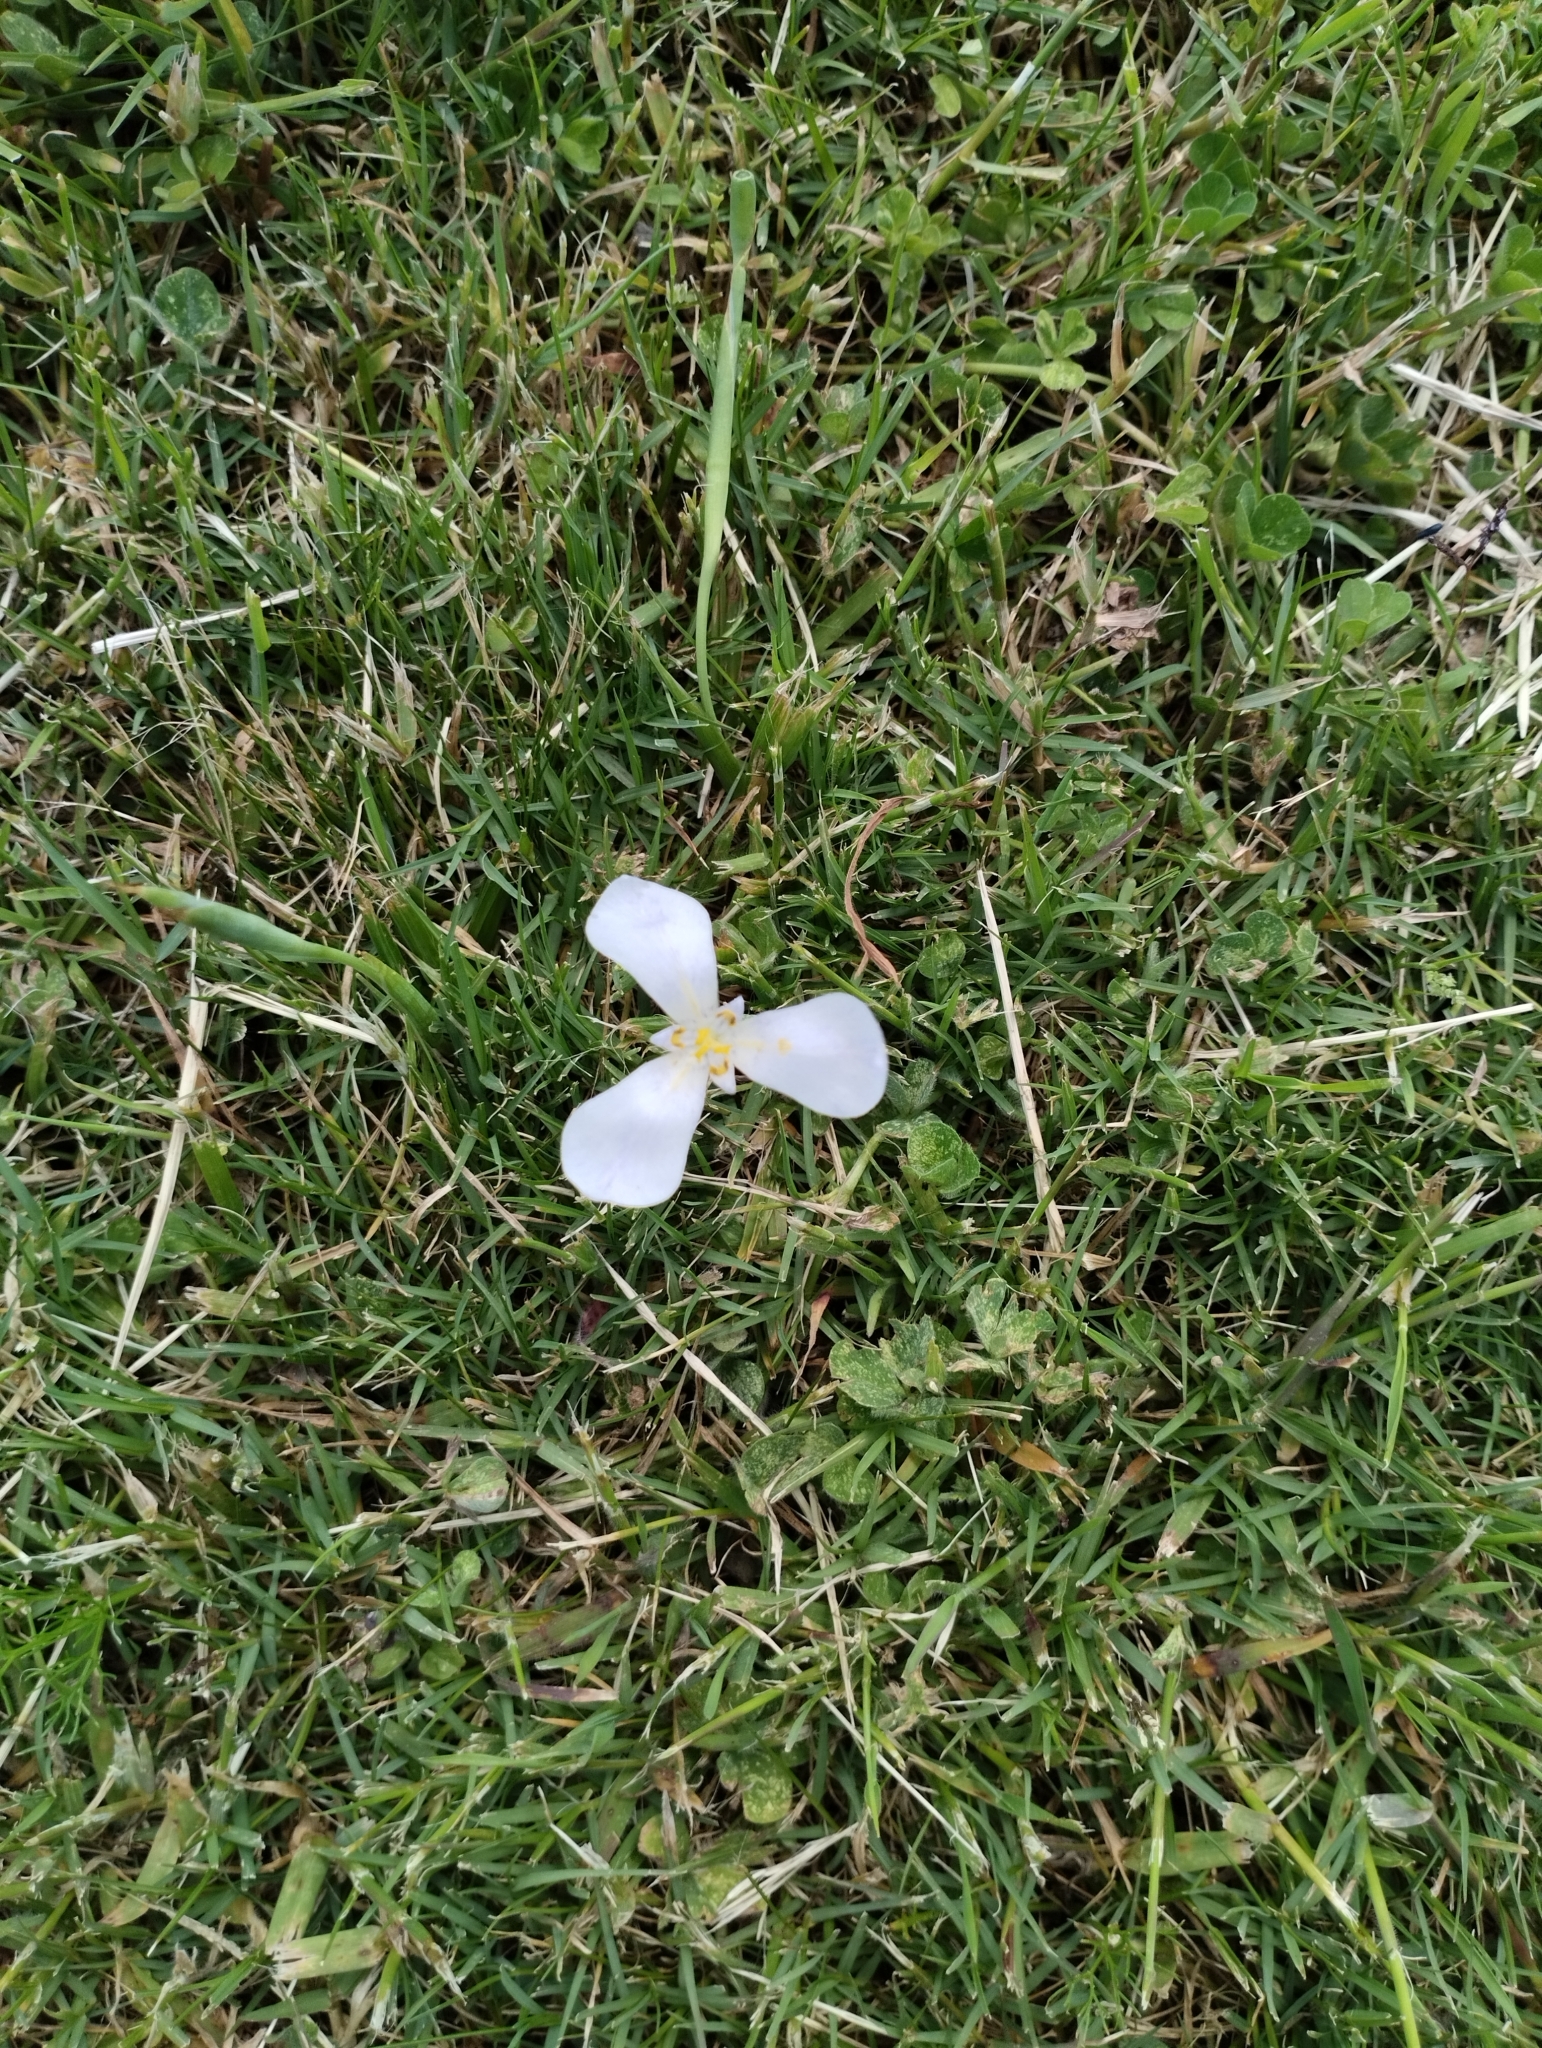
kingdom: Plantae
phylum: Tracheophyta
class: Liliopsida
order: Asparagales
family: Iridaceae
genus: Herbertia
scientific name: Herbertia lahue
